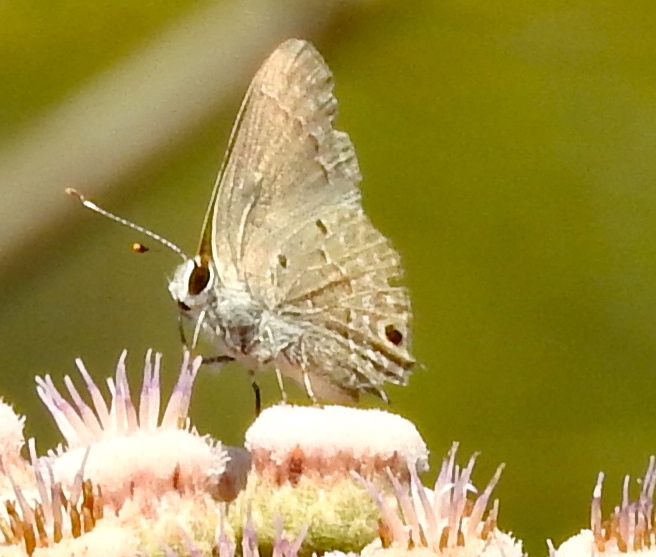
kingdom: Animalia
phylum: Arthropoda
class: Insecta
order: Lepidoptera
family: Lycaenidae
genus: Callicista
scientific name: Callicista columella
